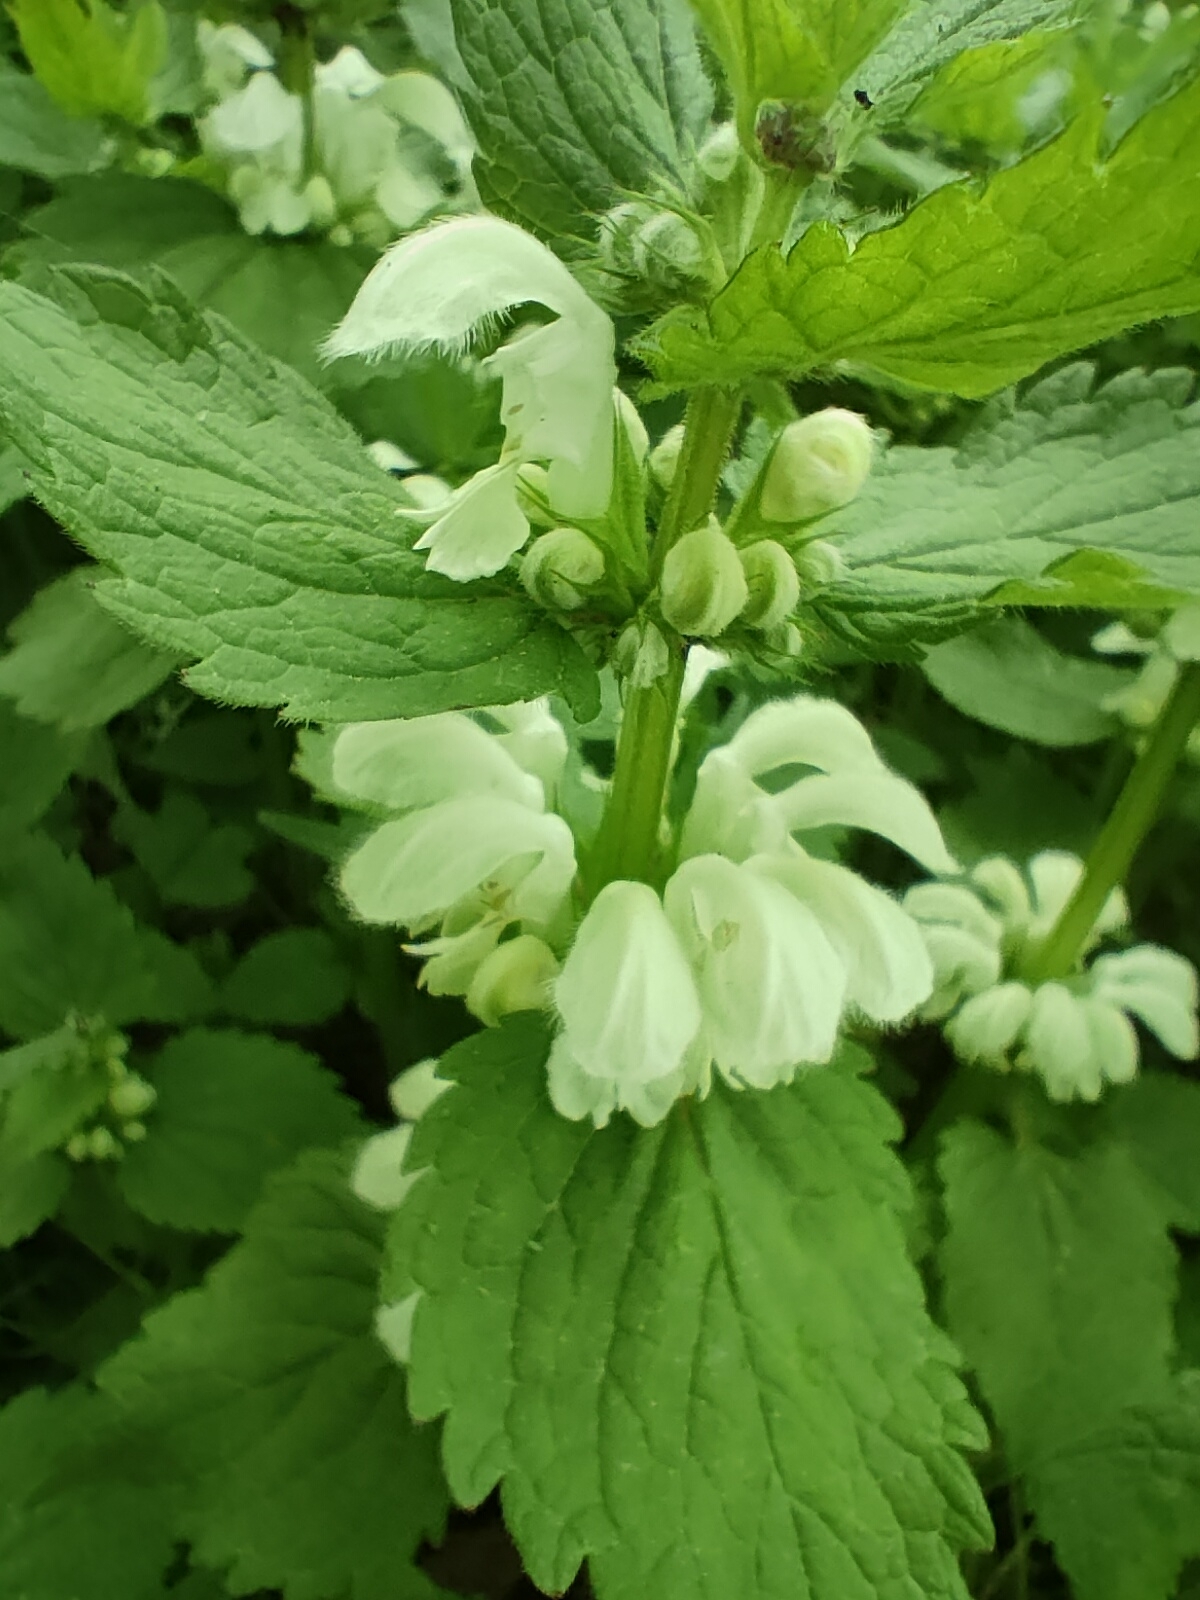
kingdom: Plantae
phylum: Tracheophyta
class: Magnoliopsida
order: Lamiales
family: Lamiaceae
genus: Lamium
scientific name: Lamium album
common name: White dead-nettle
